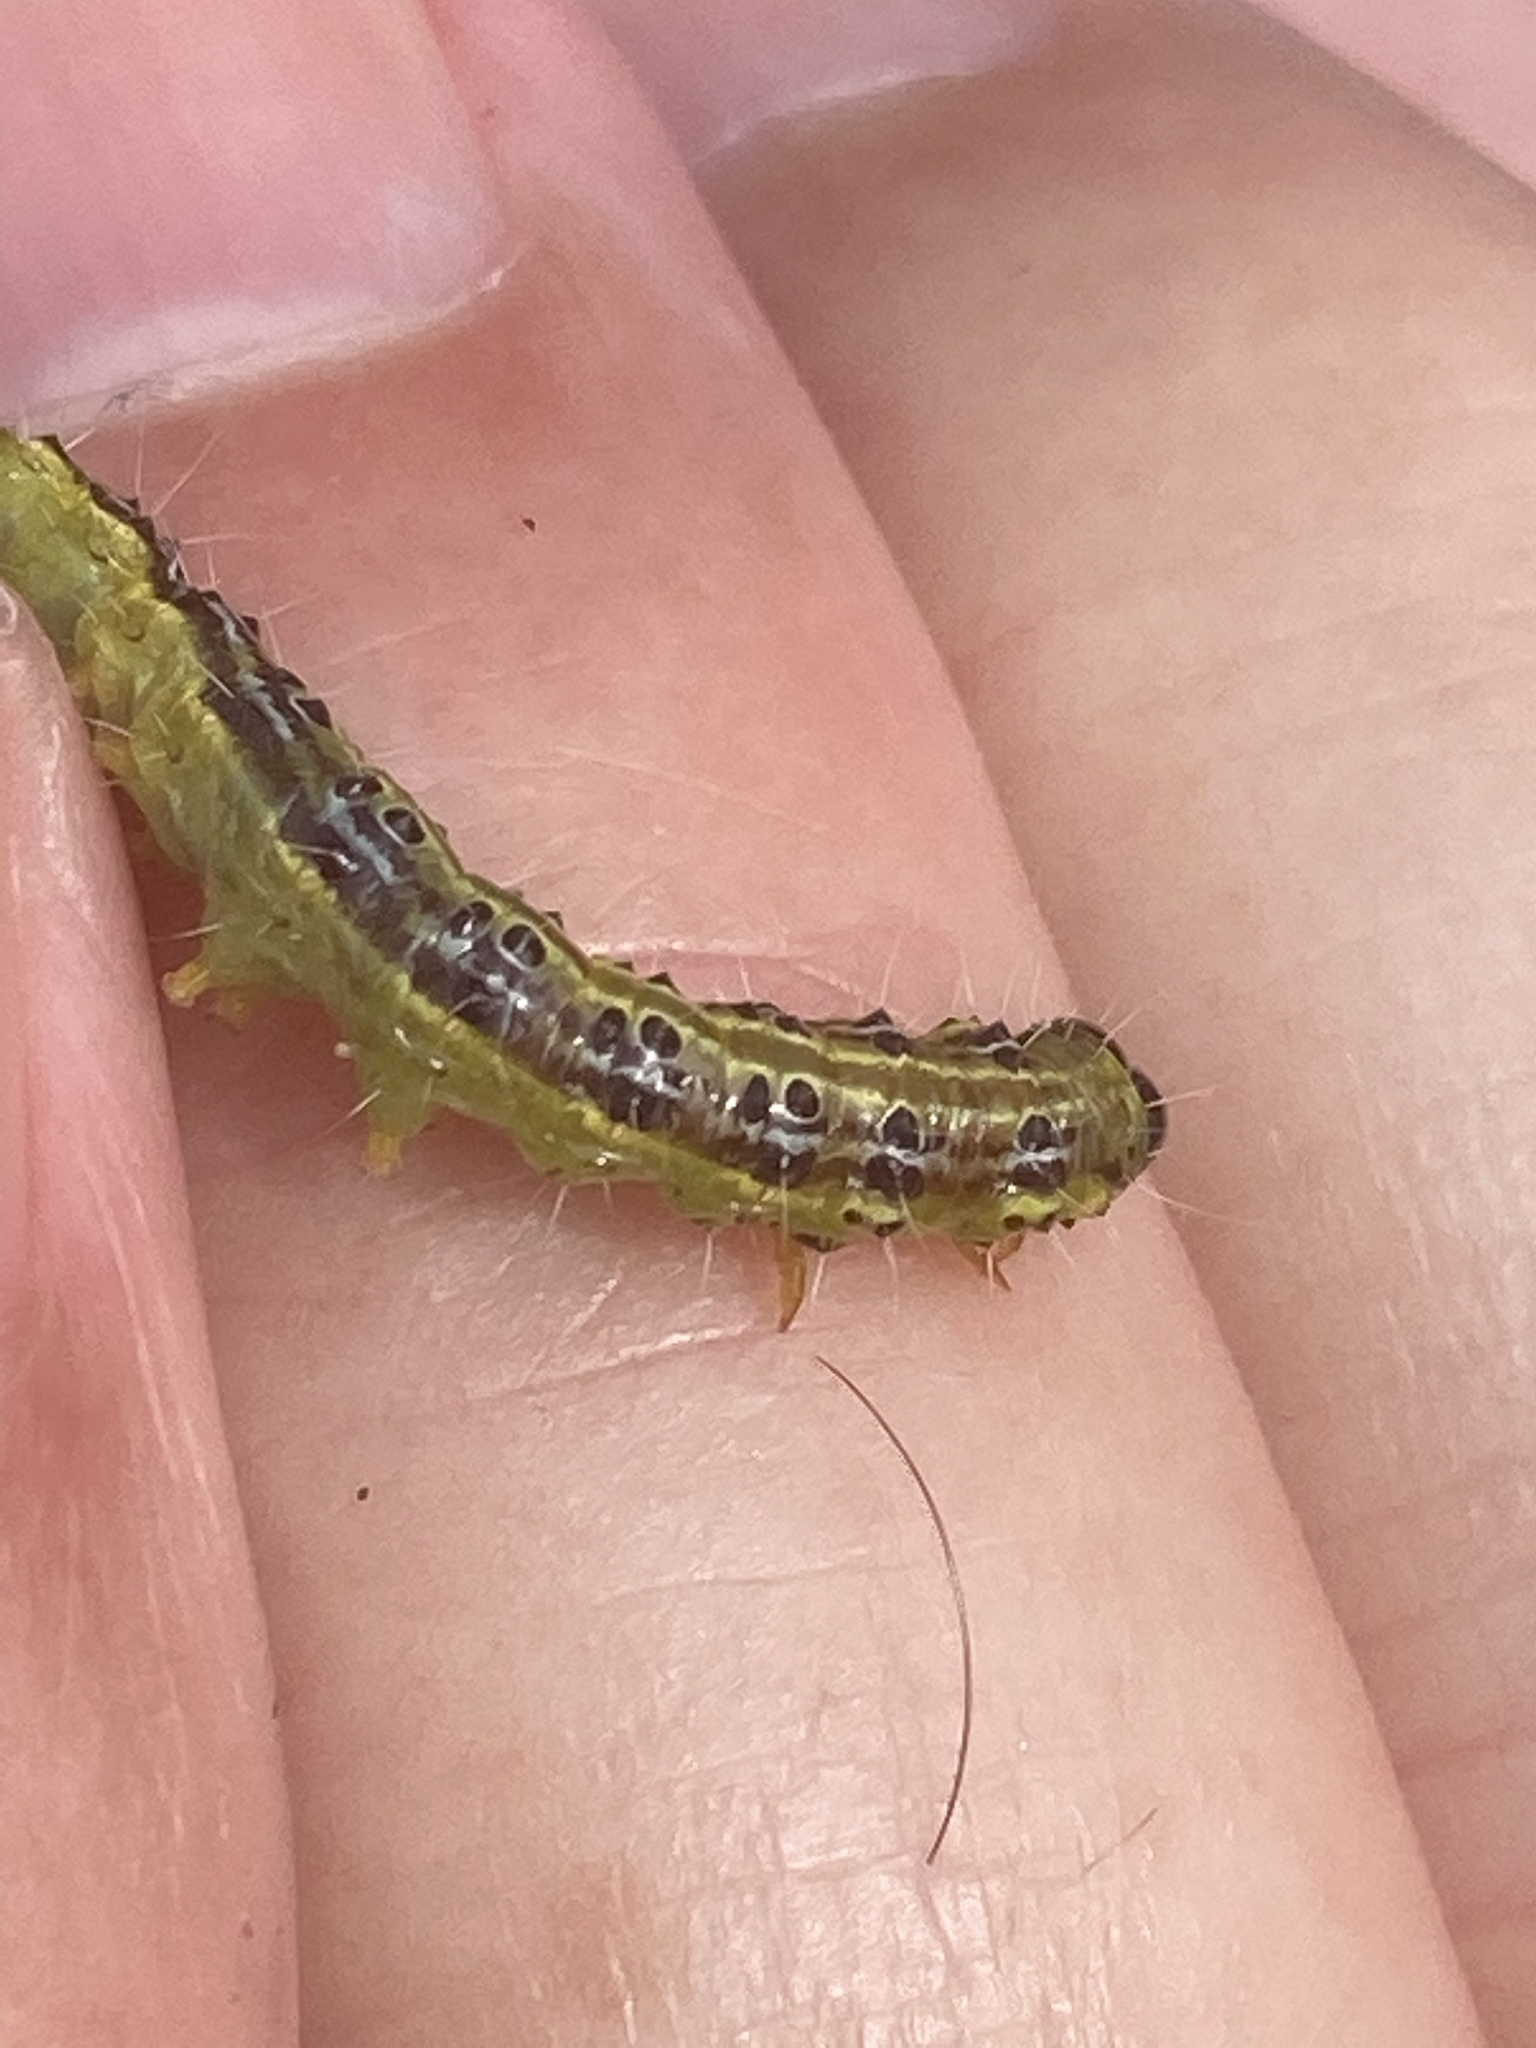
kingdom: Animalia
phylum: Arthropoda
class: Insecta
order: Lepidoptera
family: Crambidae
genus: Cydalima
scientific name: Cydalima perspectalis
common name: Box tree moth
